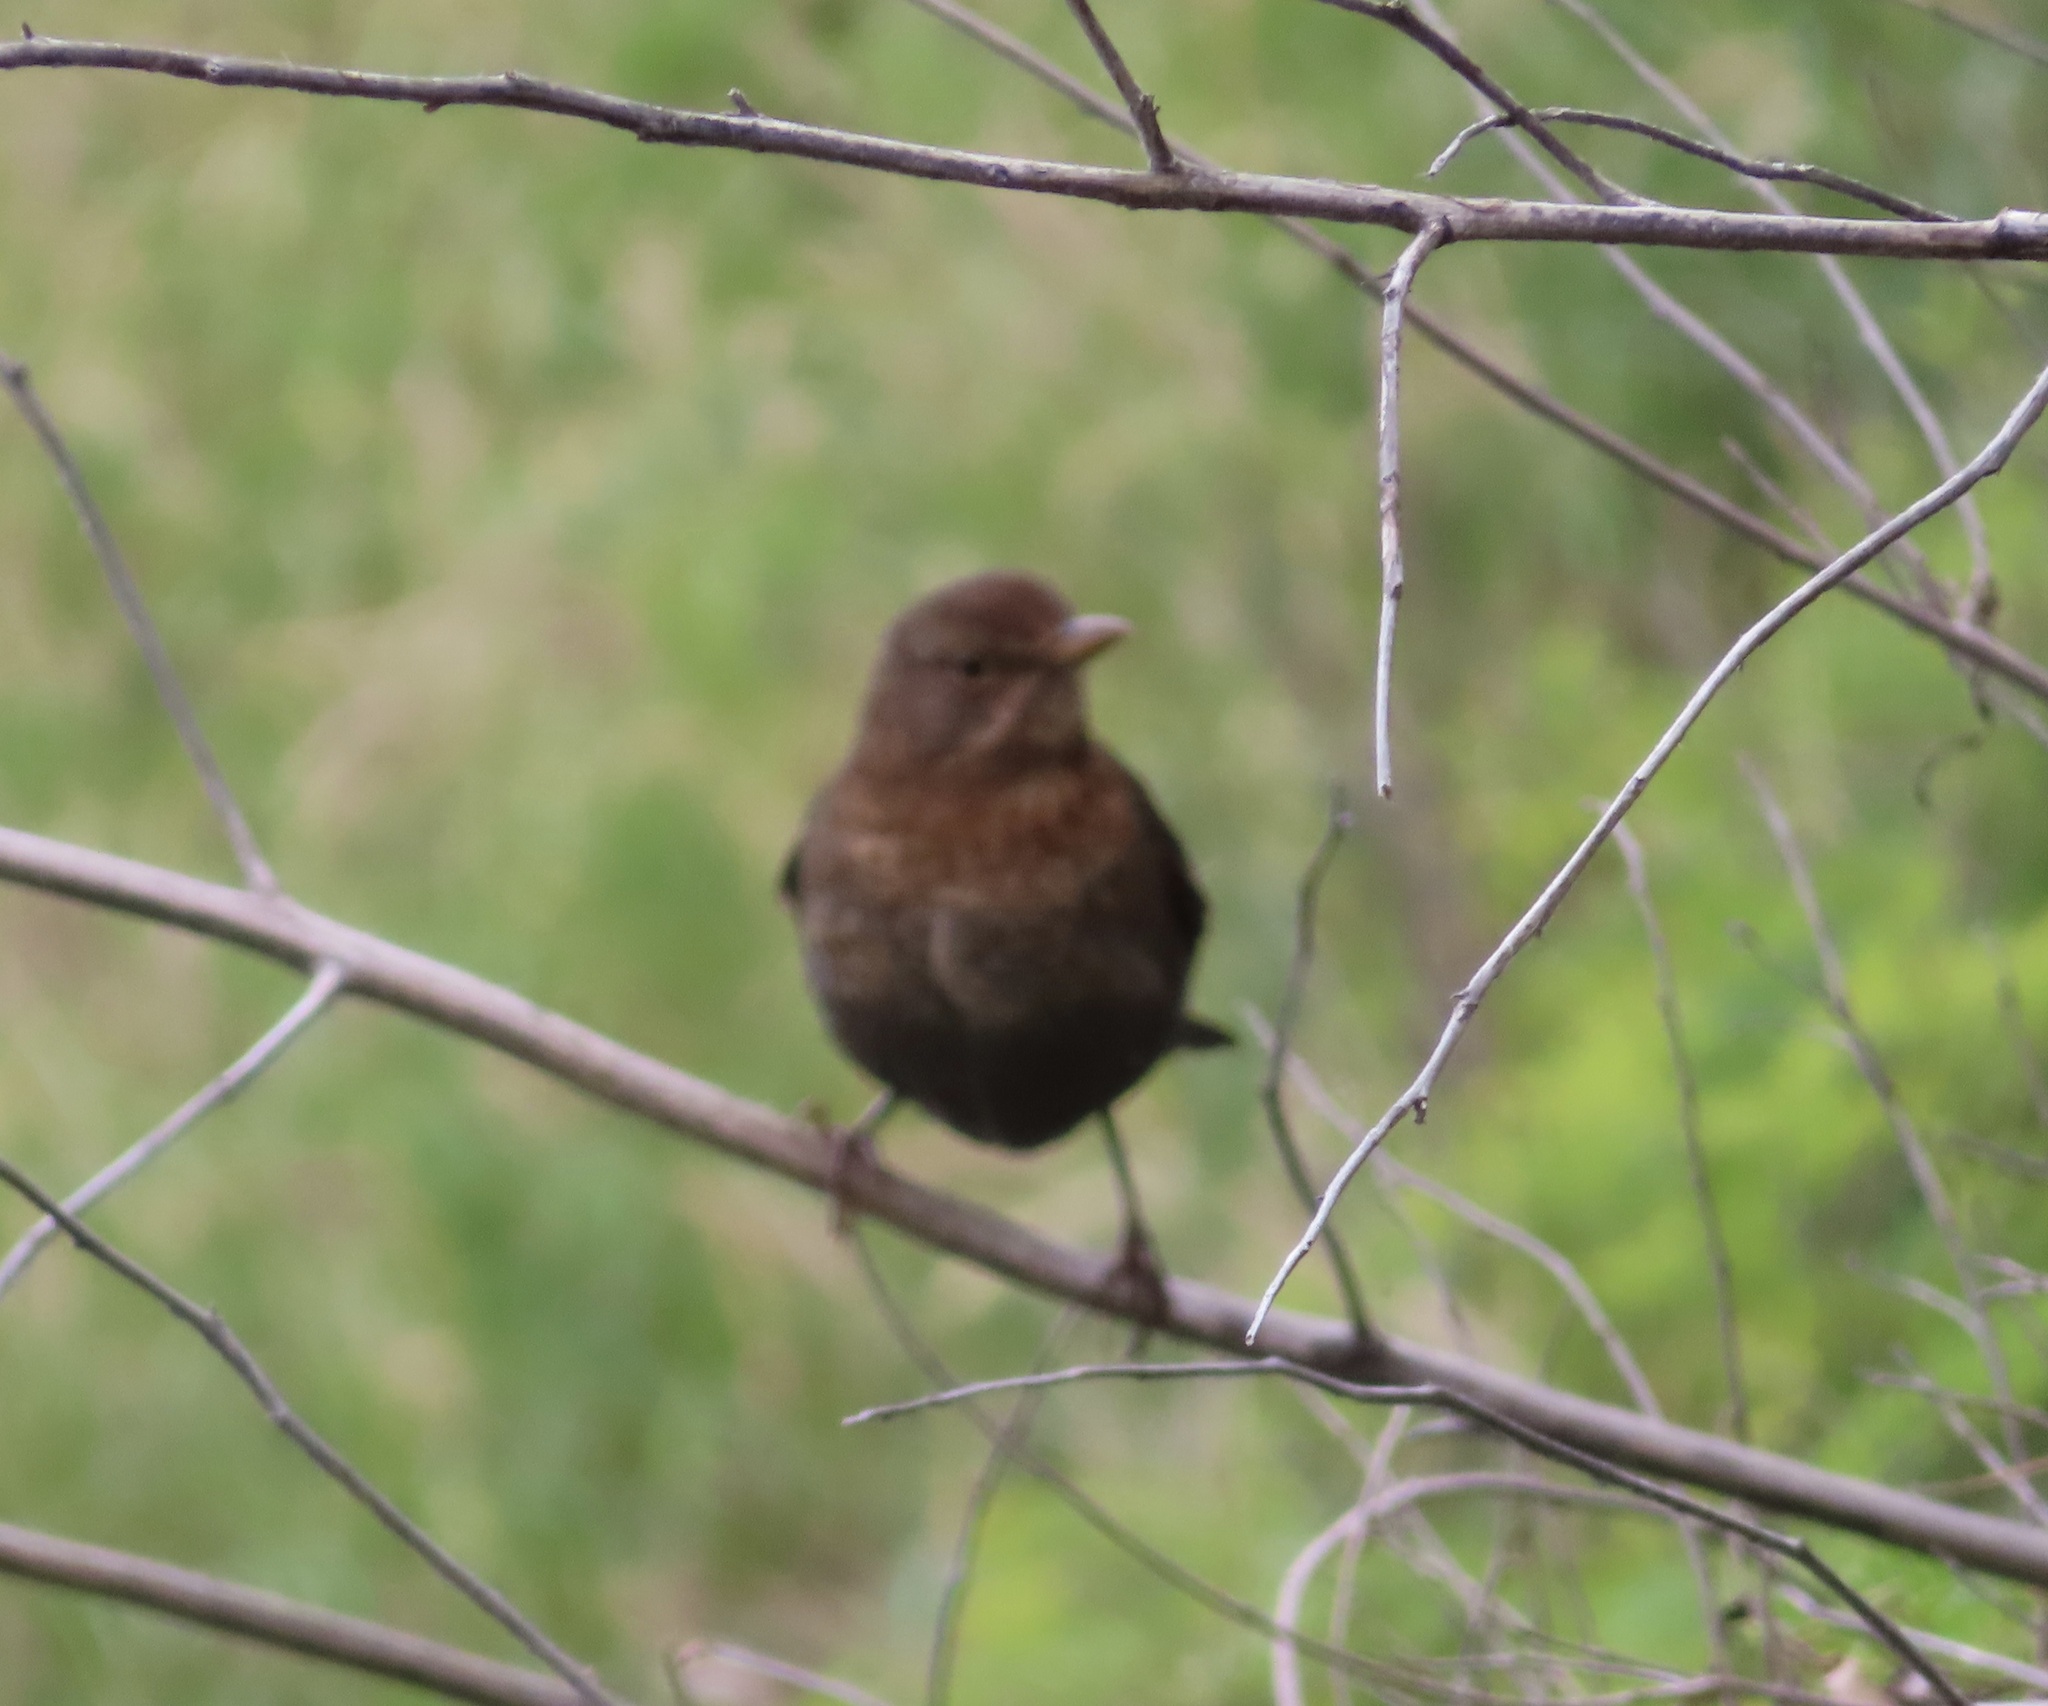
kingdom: Animalia
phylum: Chordata
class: Aves
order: Passeriformes
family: Turdidae
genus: Turdus
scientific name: Turdus merula
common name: Common blackbird
